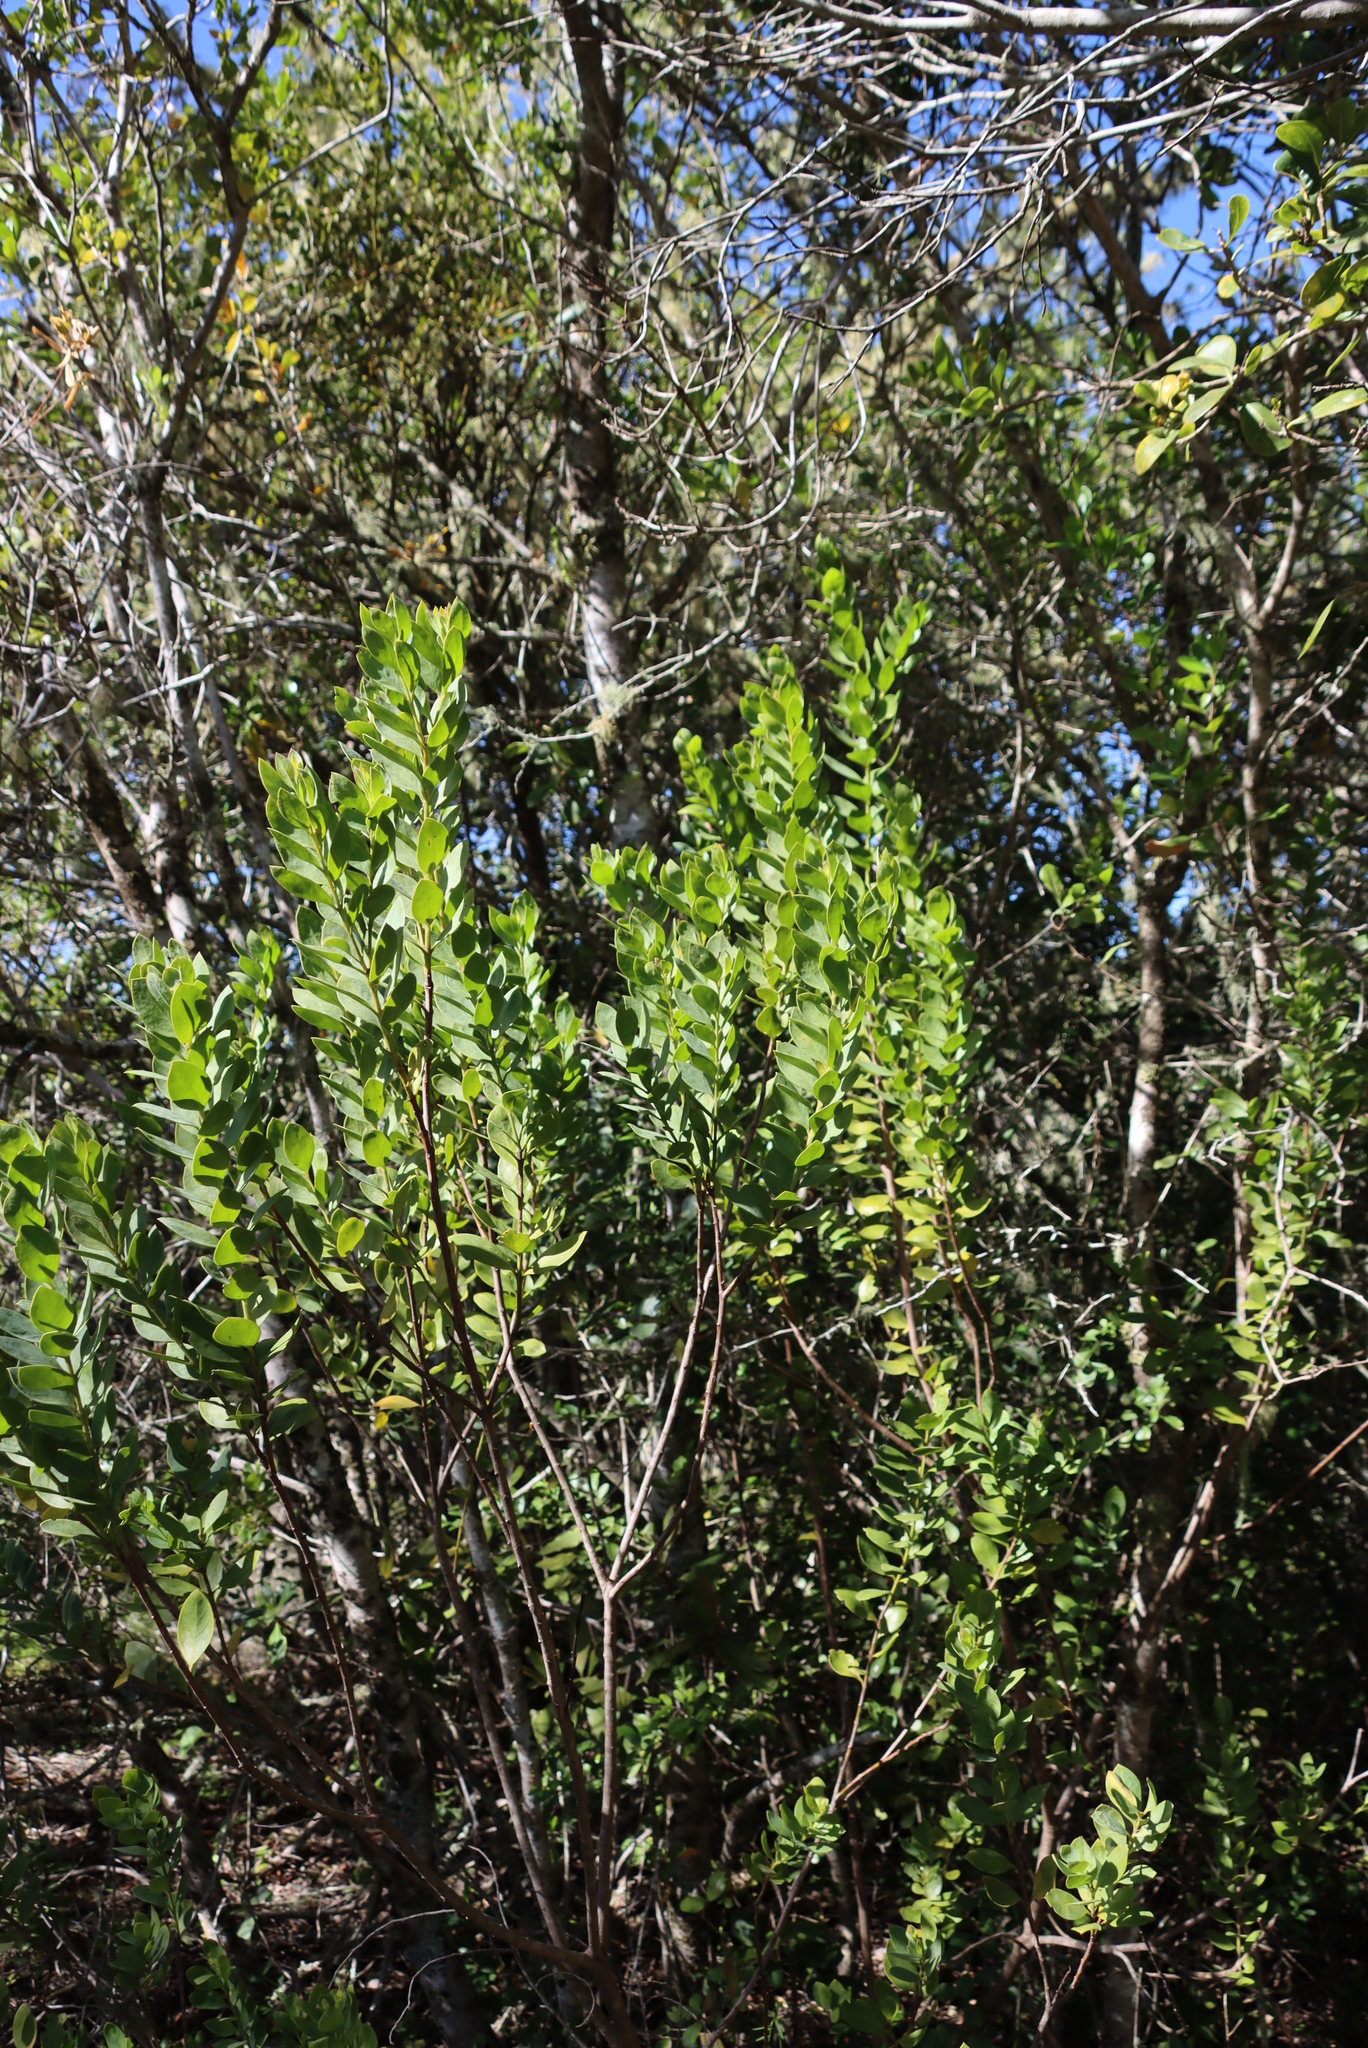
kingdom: Plantae
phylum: Tracheophyta
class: Magnoliopsida
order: Santalales
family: Santalaceae
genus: Osyris
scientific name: Osyris compressa
